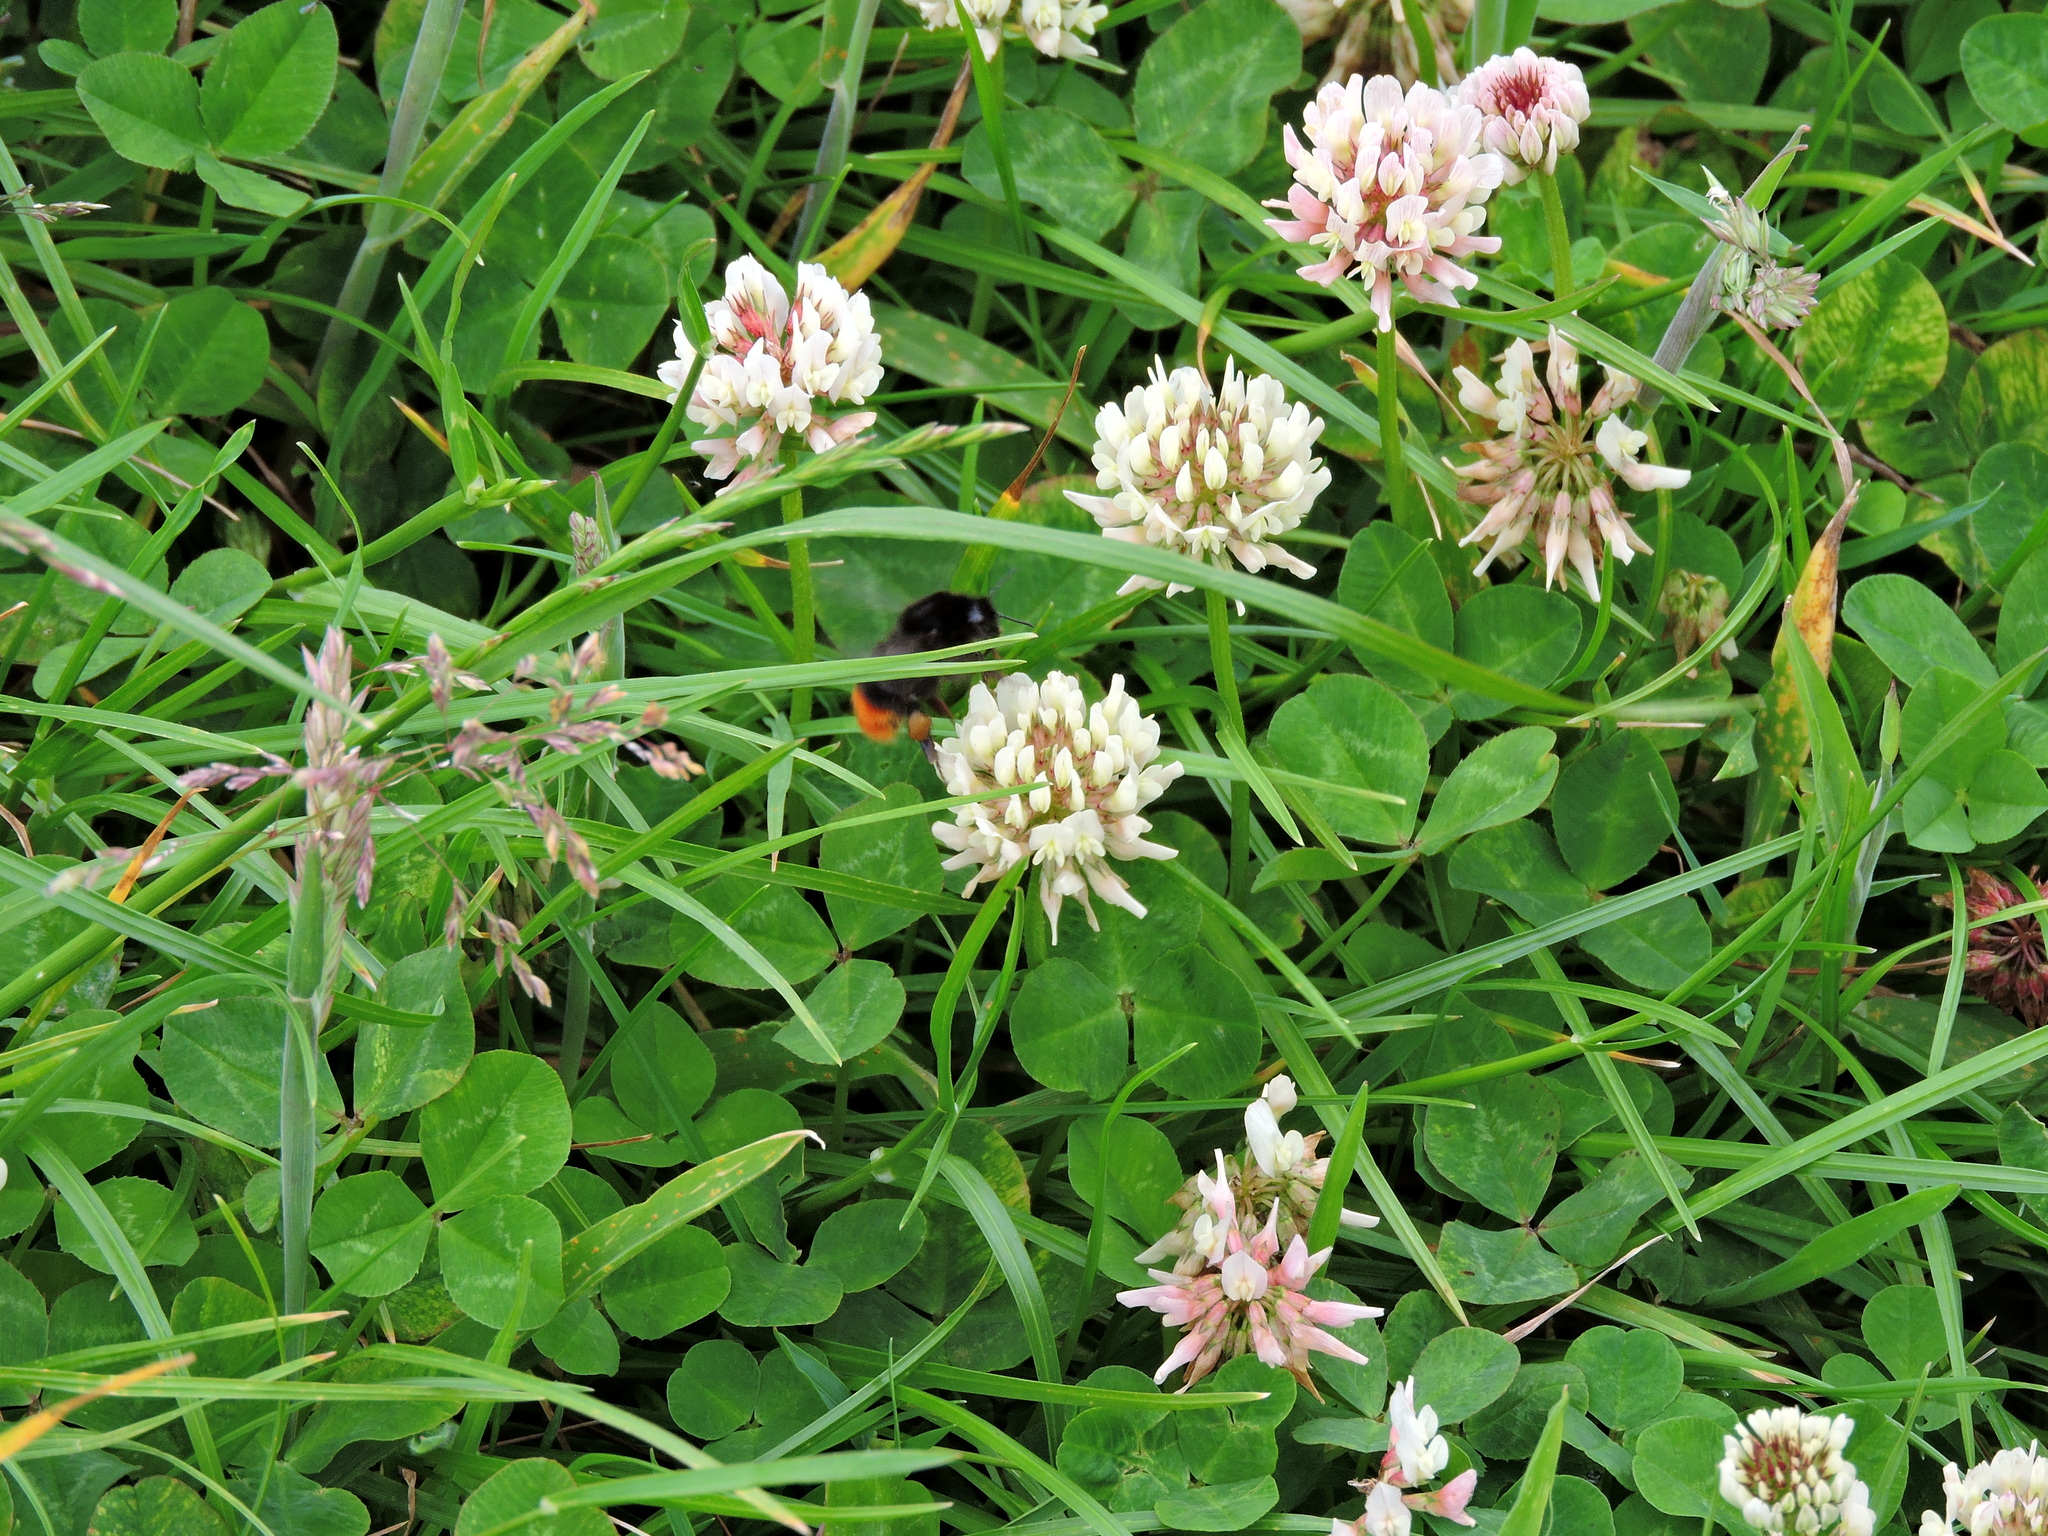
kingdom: Animalia
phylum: Arthropoda
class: Insecta
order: Hymenoptera
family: Apidae
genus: Bombus
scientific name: Bombus lapidarius
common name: Large red-tailed humble-bee
